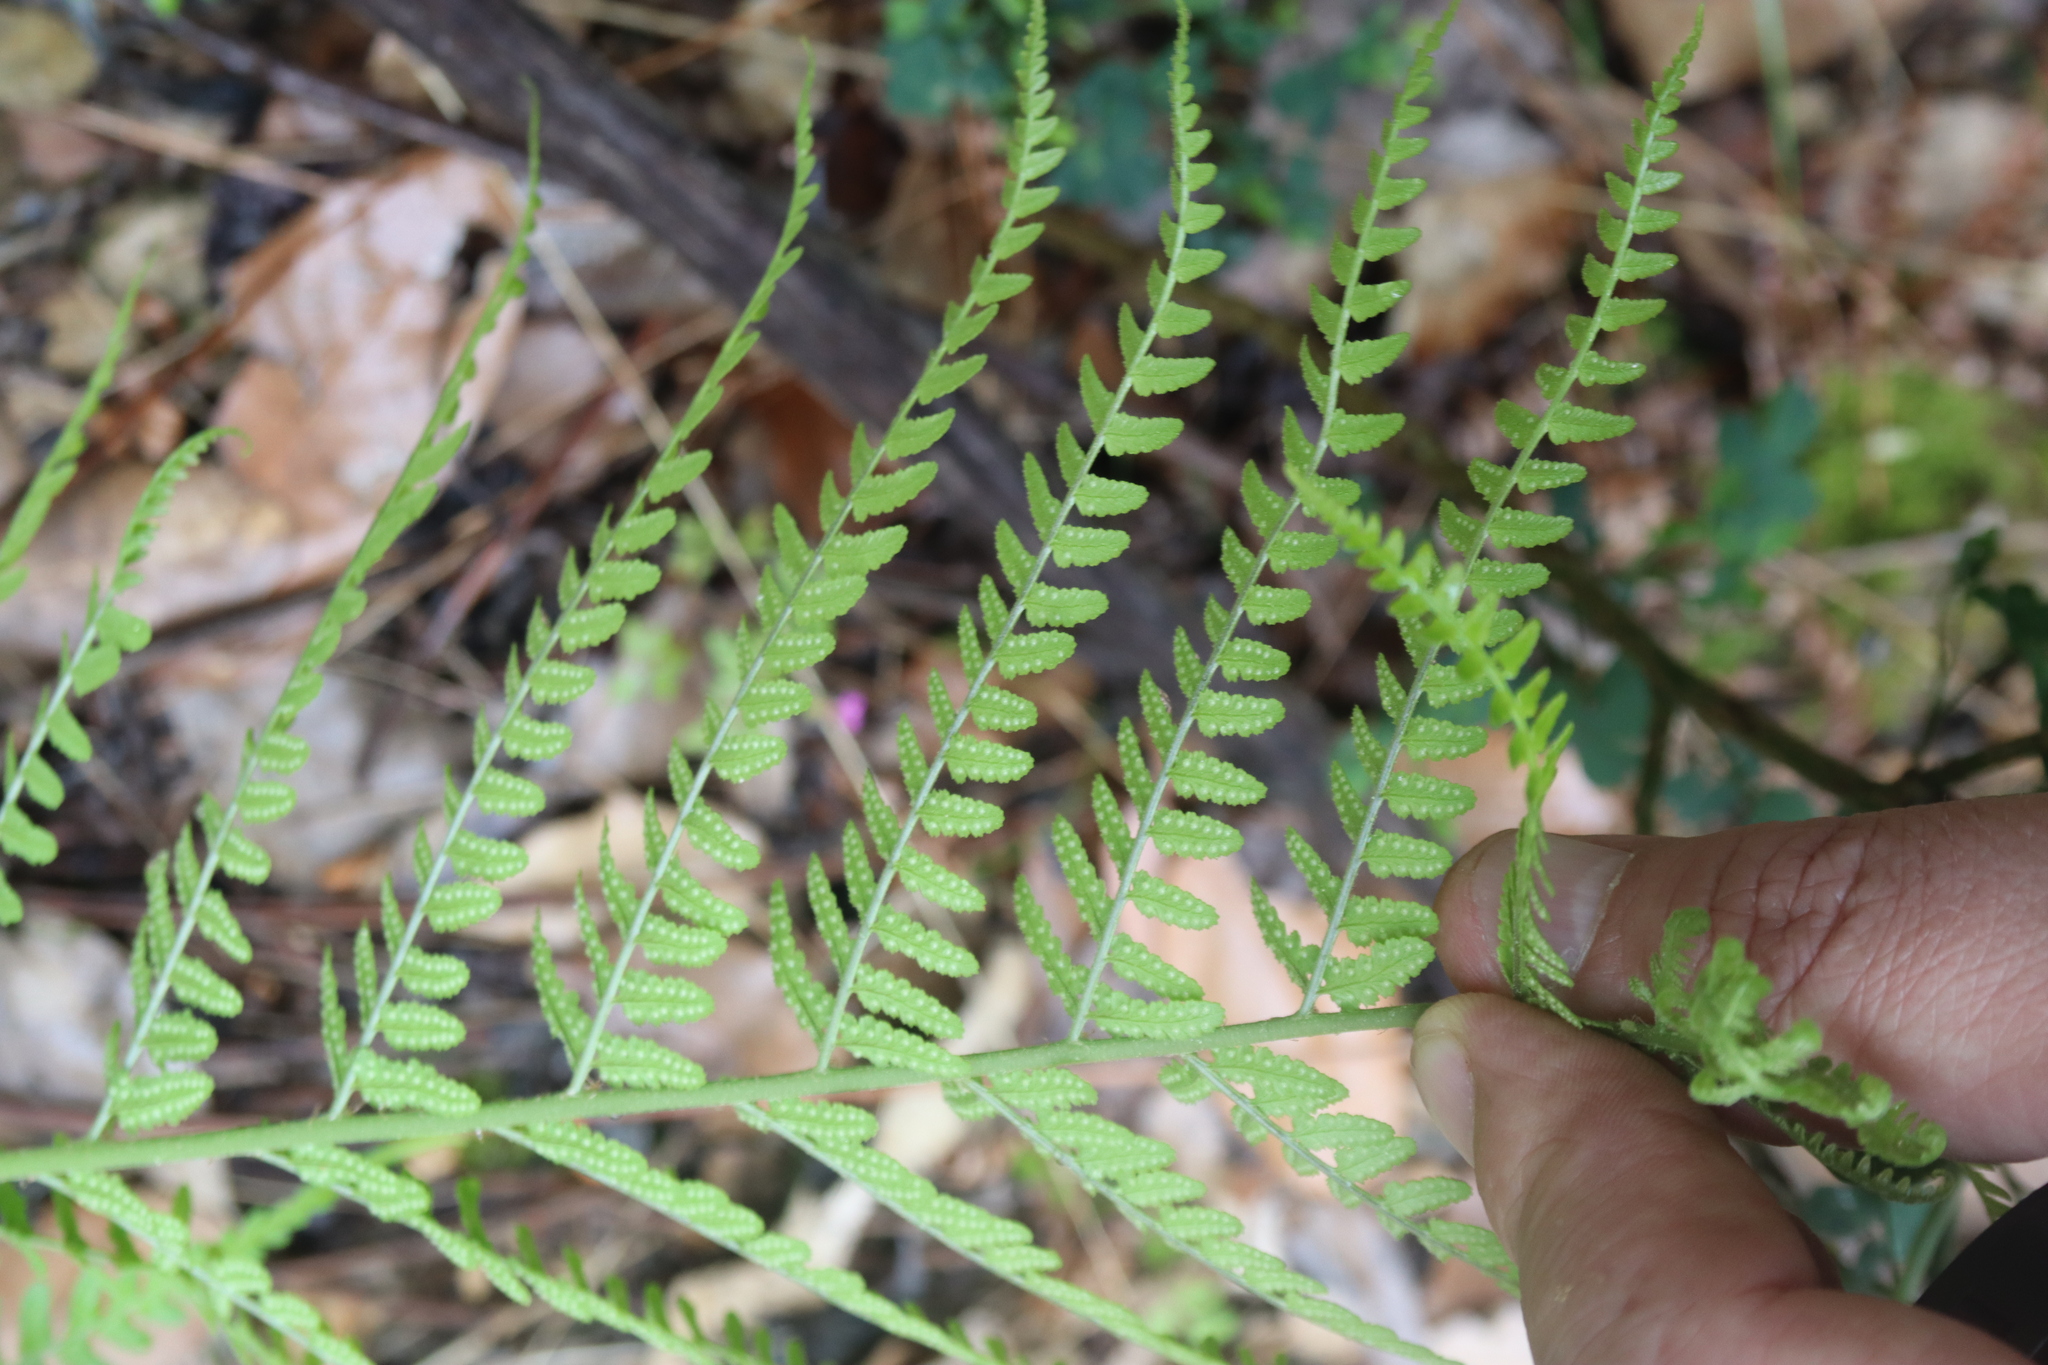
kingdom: Plantae
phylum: Tracheophyta
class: Polypodiopsida
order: Polypodiales
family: Dryopteridaceae
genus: Dryopteris
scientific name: Dryopteris pallida
